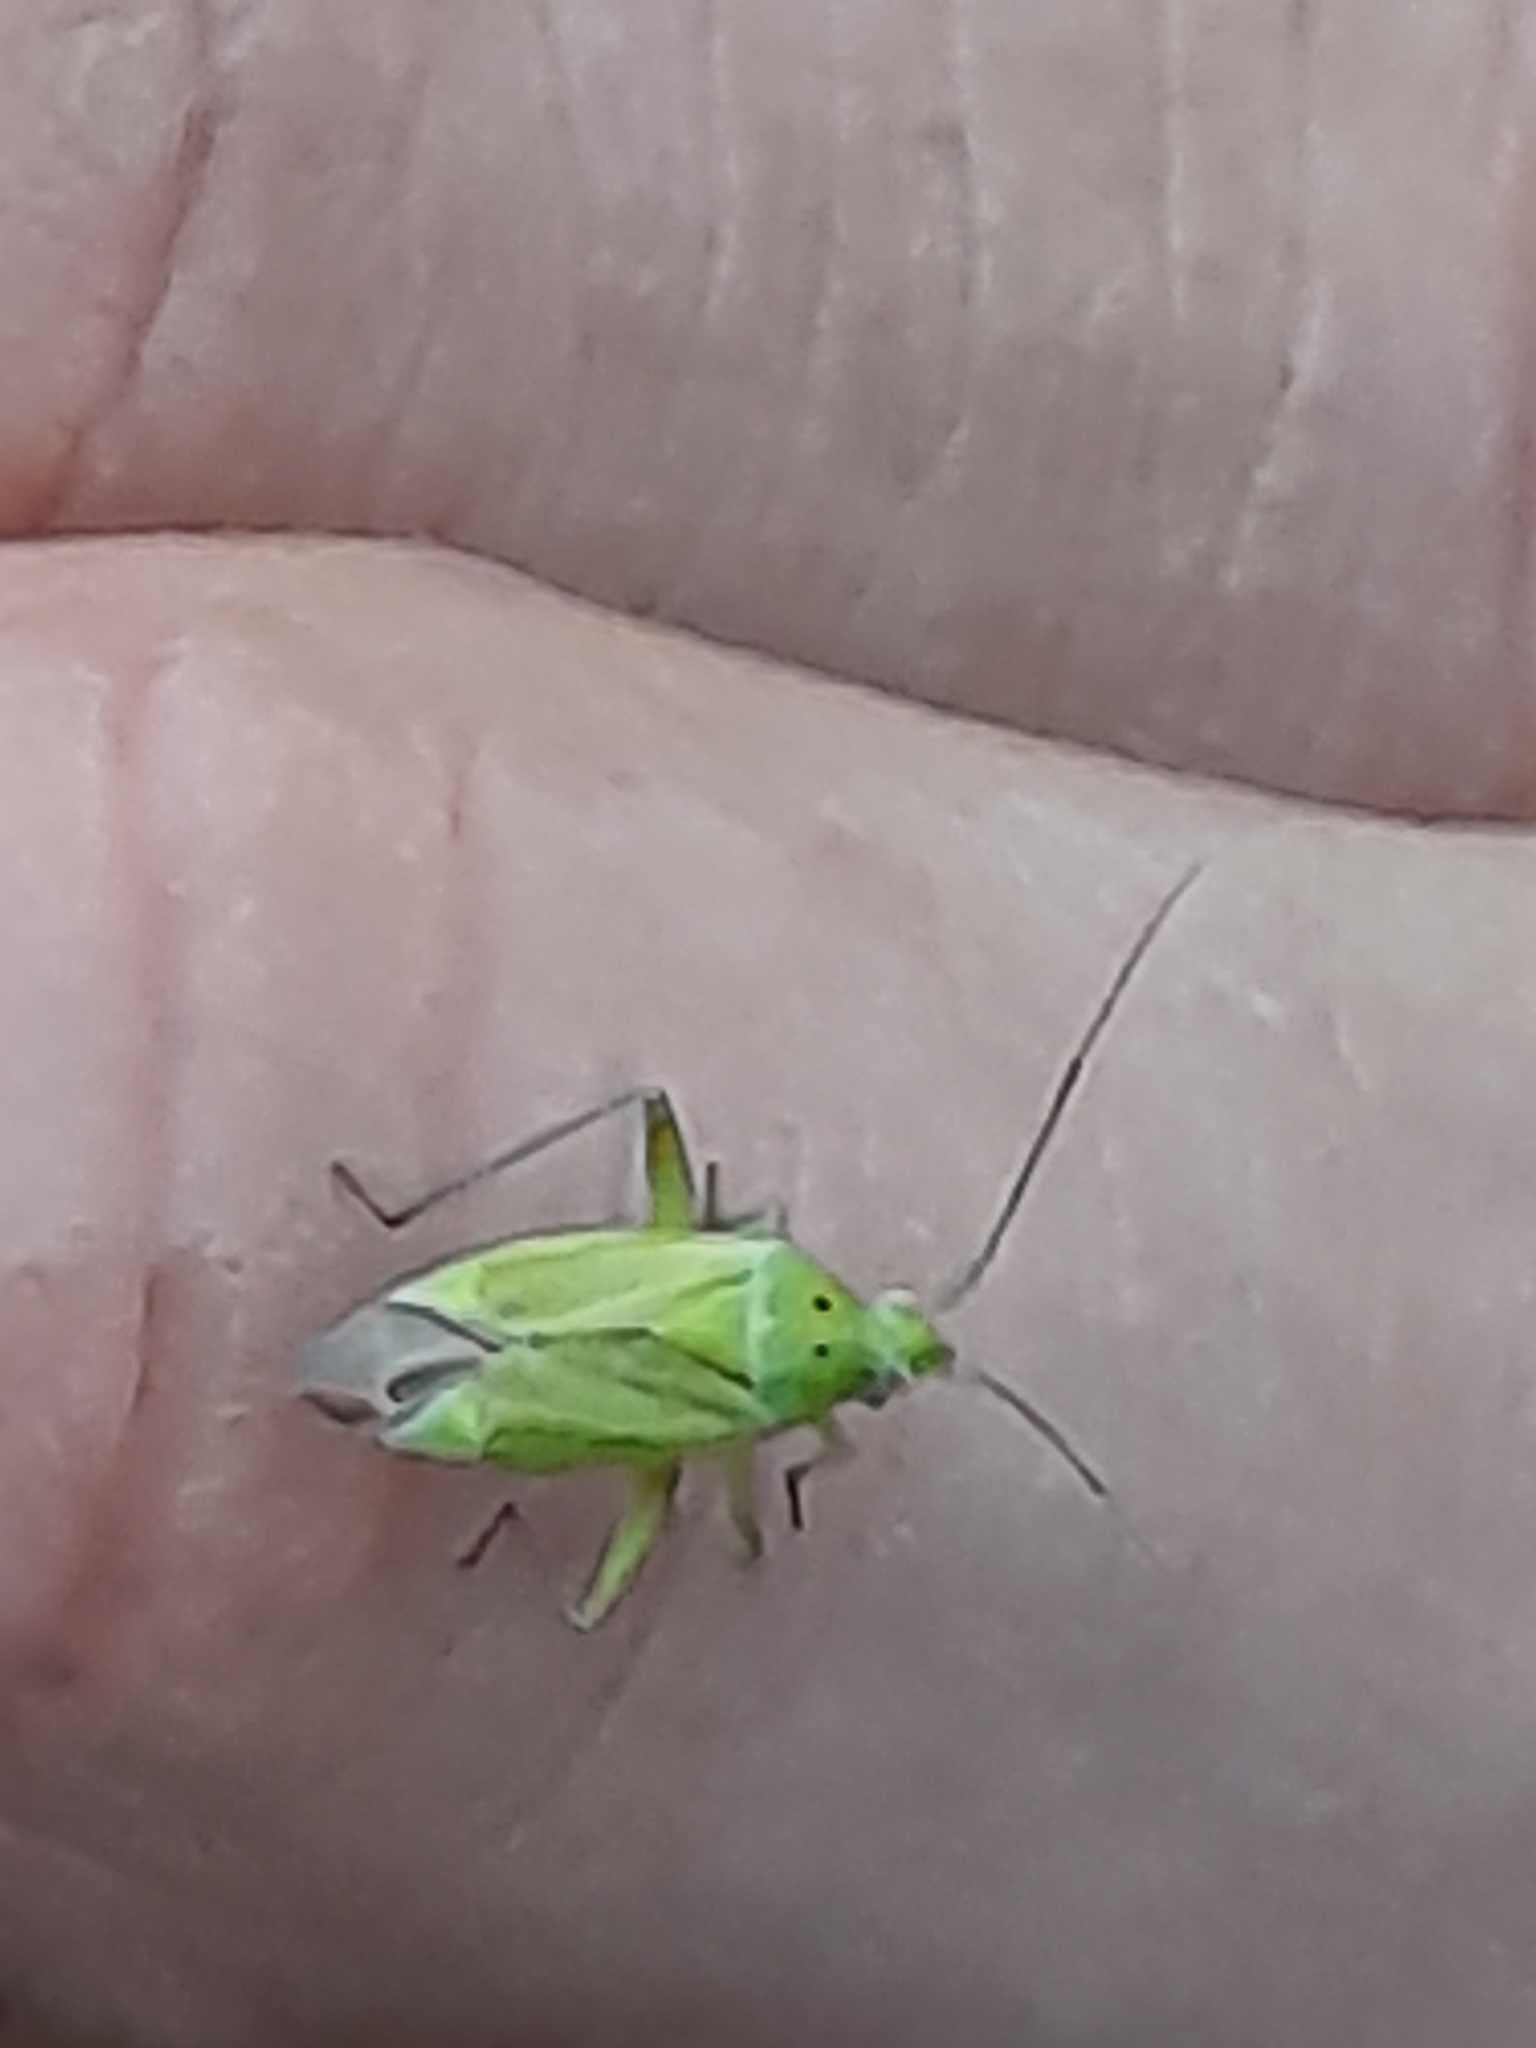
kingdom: Animalia
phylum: Arthropoda
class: Insecta
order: Hemiptera
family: Miridae
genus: Closterotomus
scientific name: Closterotomus norvegicus
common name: Plant bug
